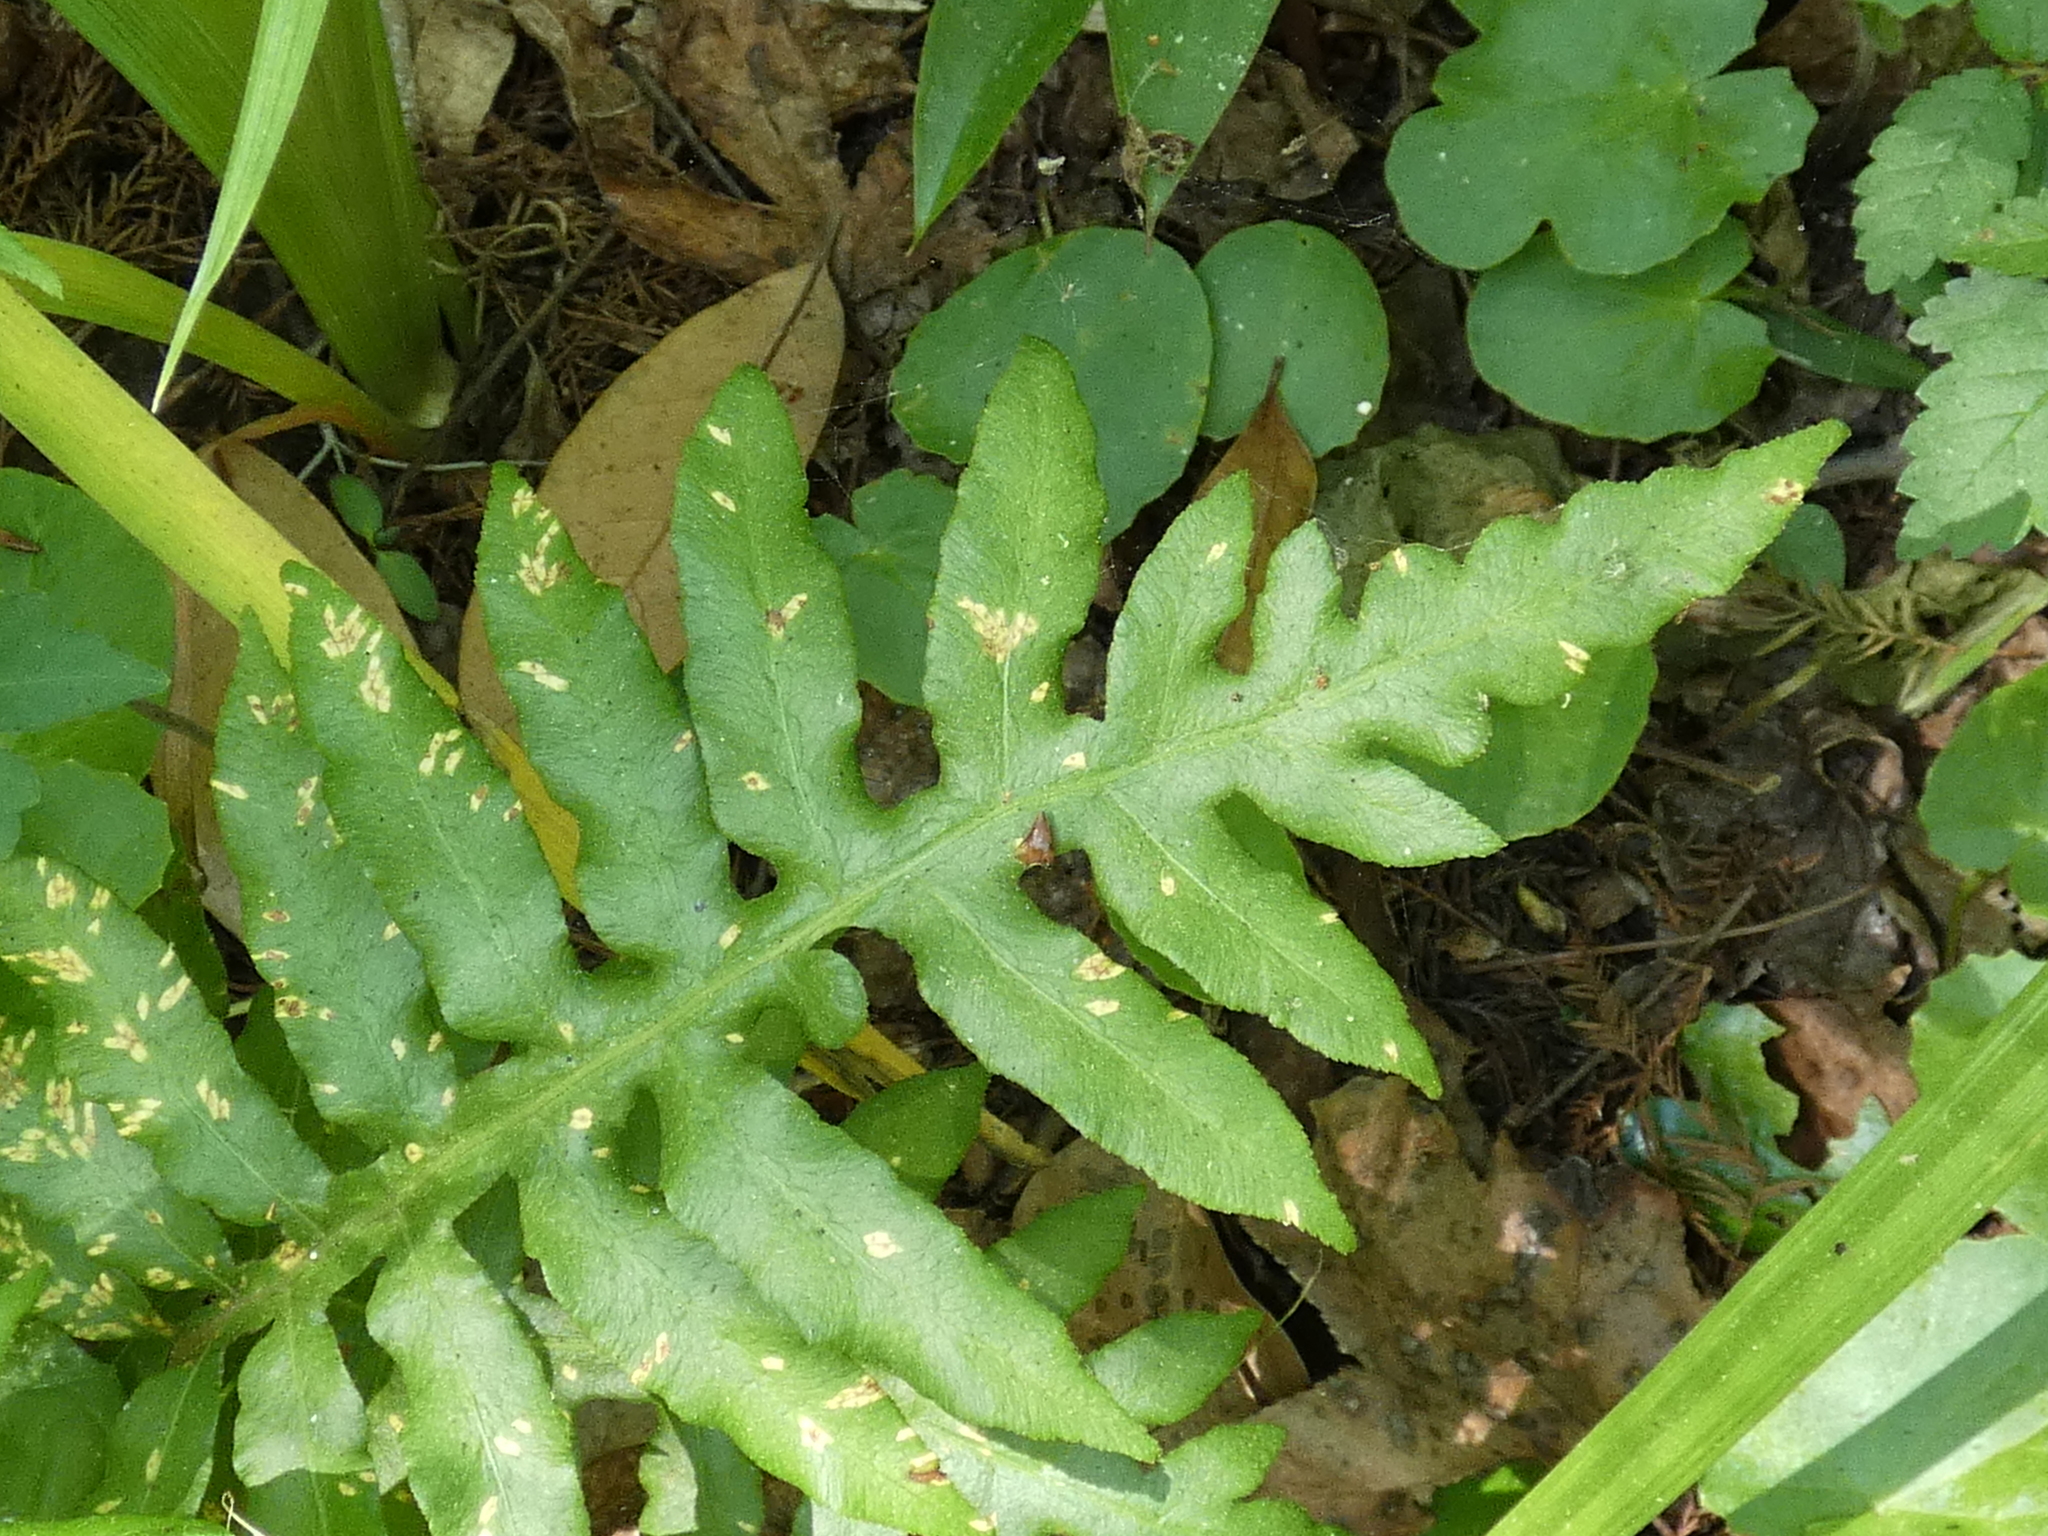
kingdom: Plantae
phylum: Tracheophyta
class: Polypodiopsida
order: Polypodiales
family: Blechnaceae
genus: Lorinseria
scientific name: Lorinseria areolata
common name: Dwarf chain fern
